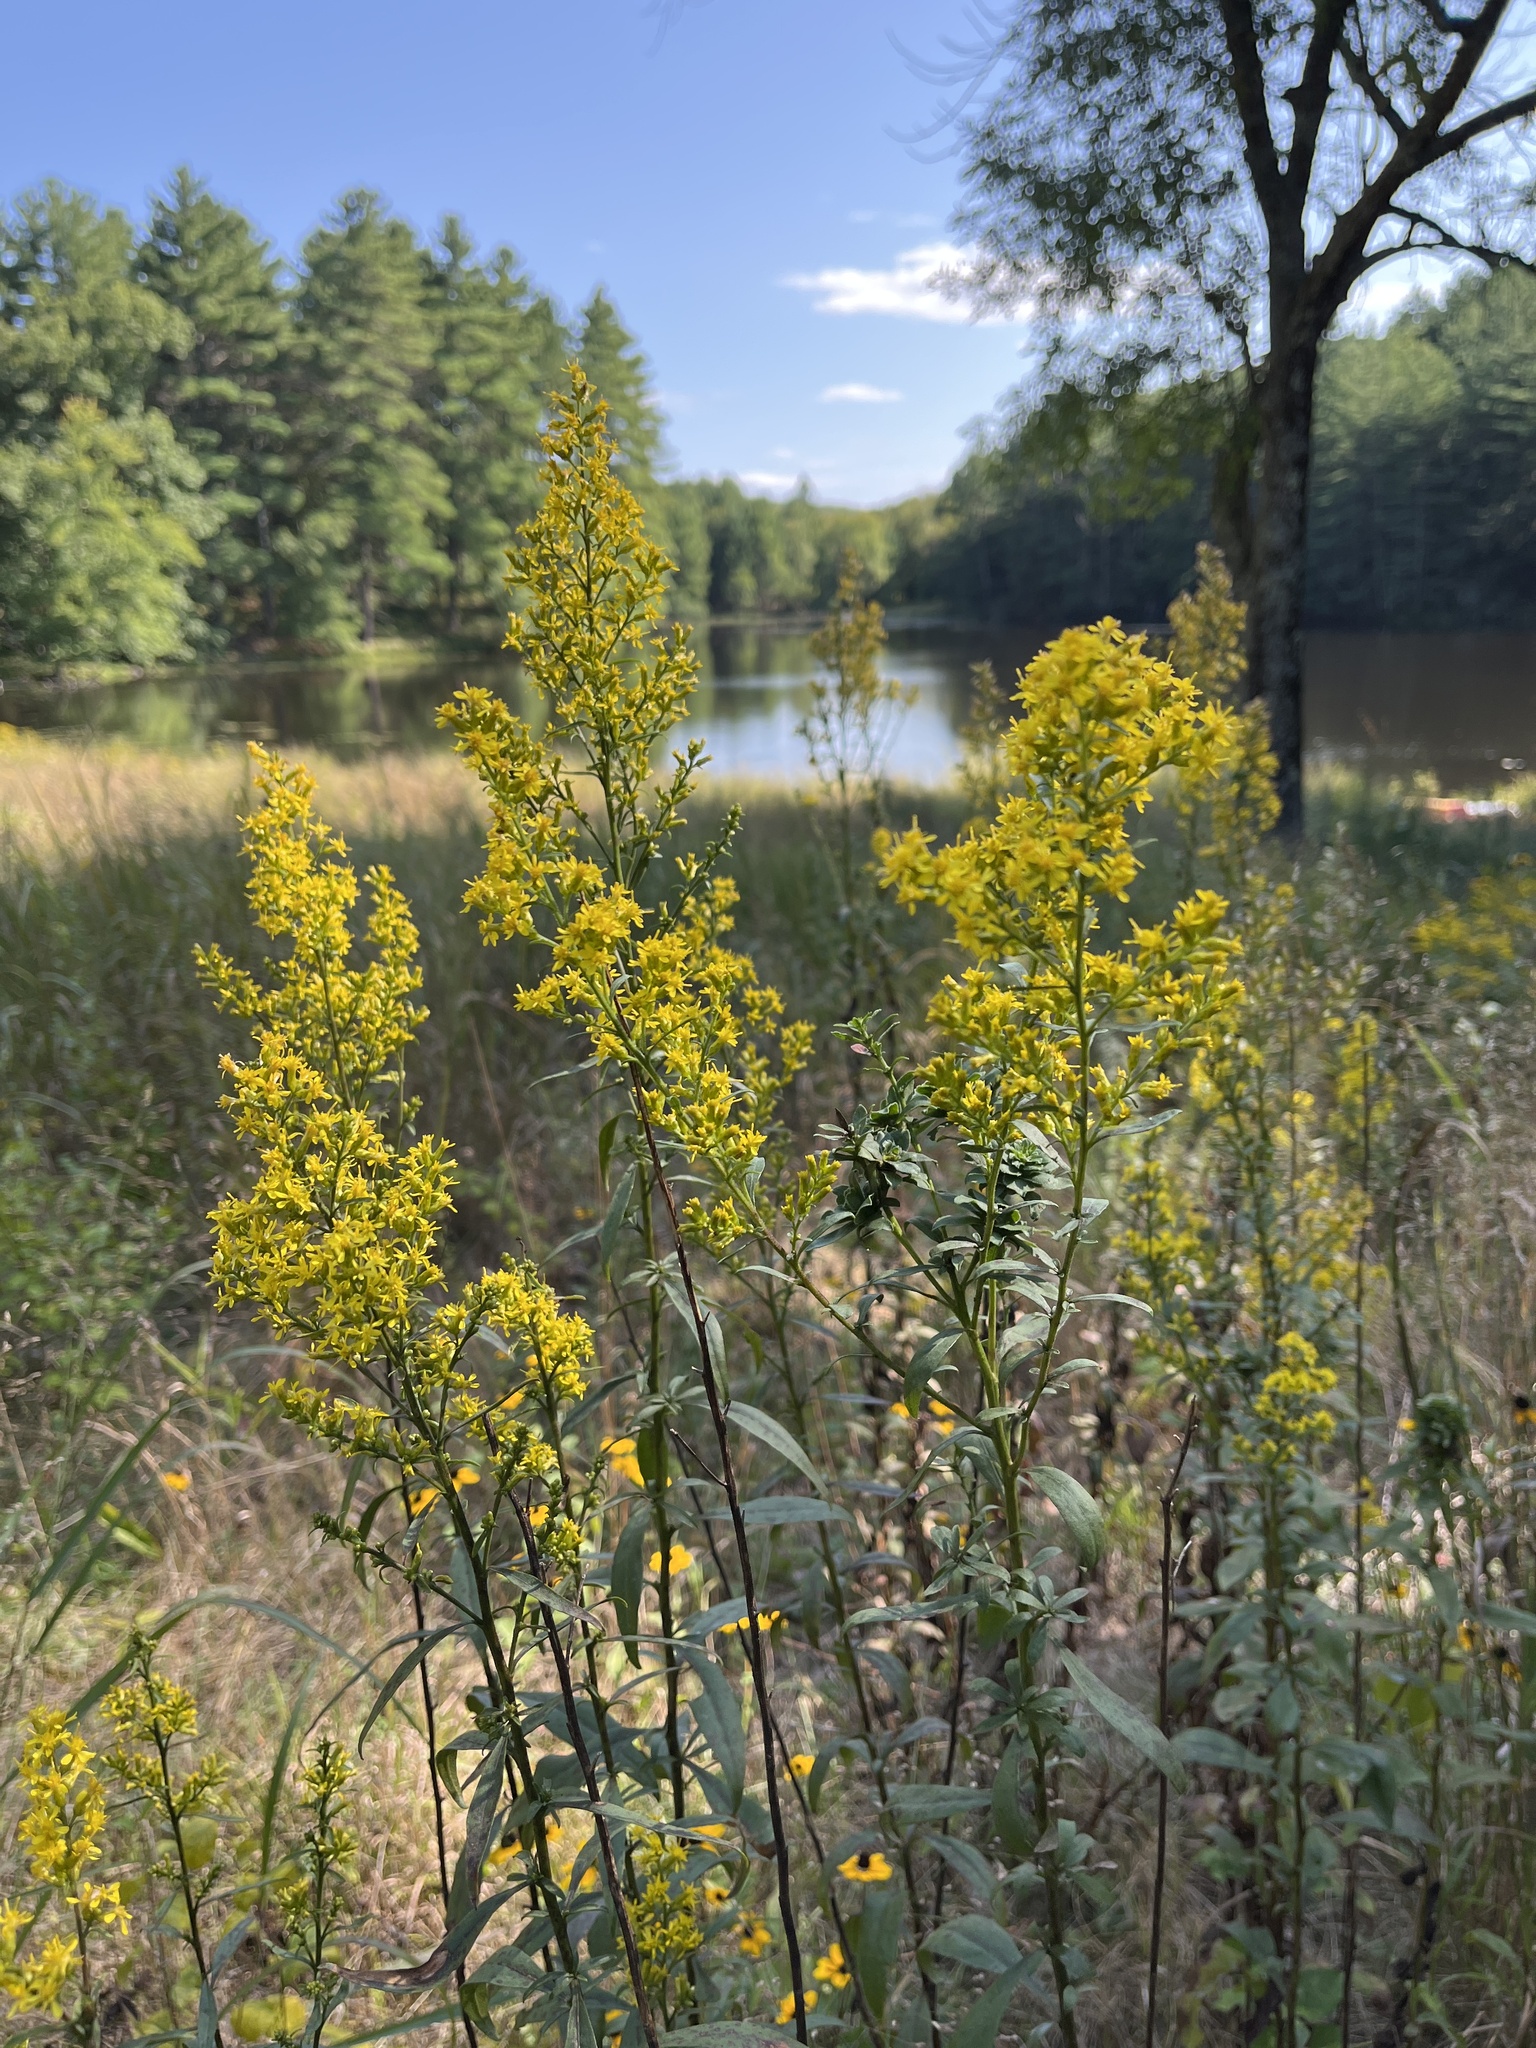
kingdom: Plantae
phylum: Tracheophyta
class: Magnoliopsida
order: Asterales
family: Asteraceae
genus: Solidago
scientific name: Solidago speciosa
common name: Showy goldenrod
